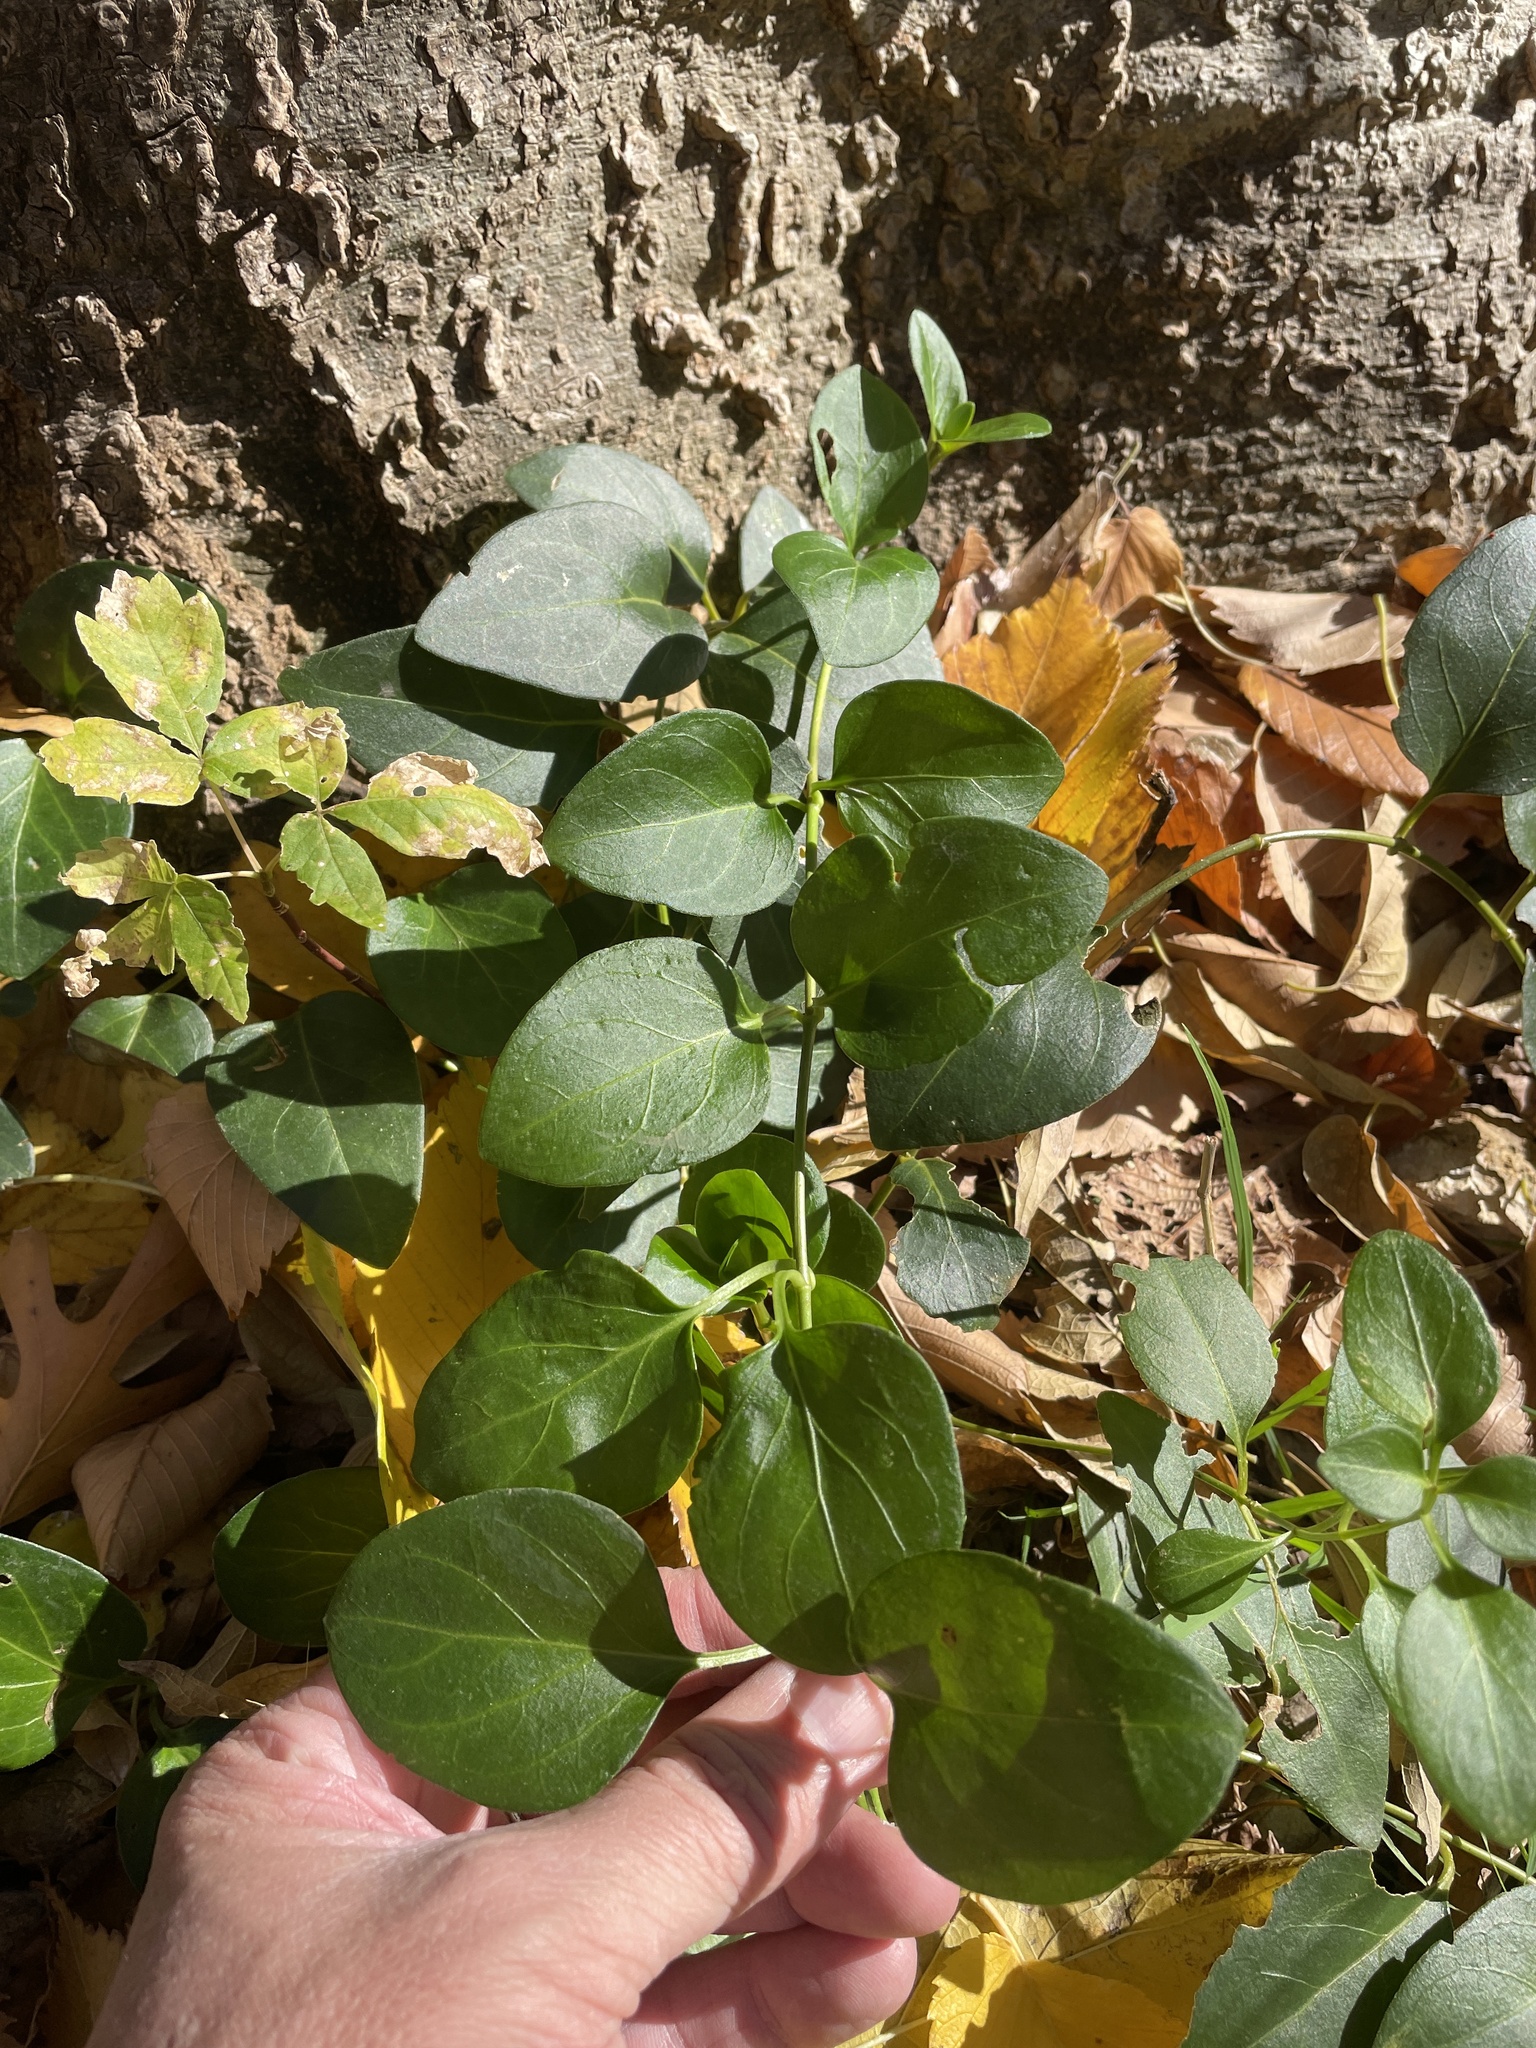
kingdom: Plantae
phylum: Tracheophyta
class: Magnoliopsida
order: Gentianales
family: Apocynaceae
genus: Vinca
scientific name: Vinca major
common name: Greater periwinkle
